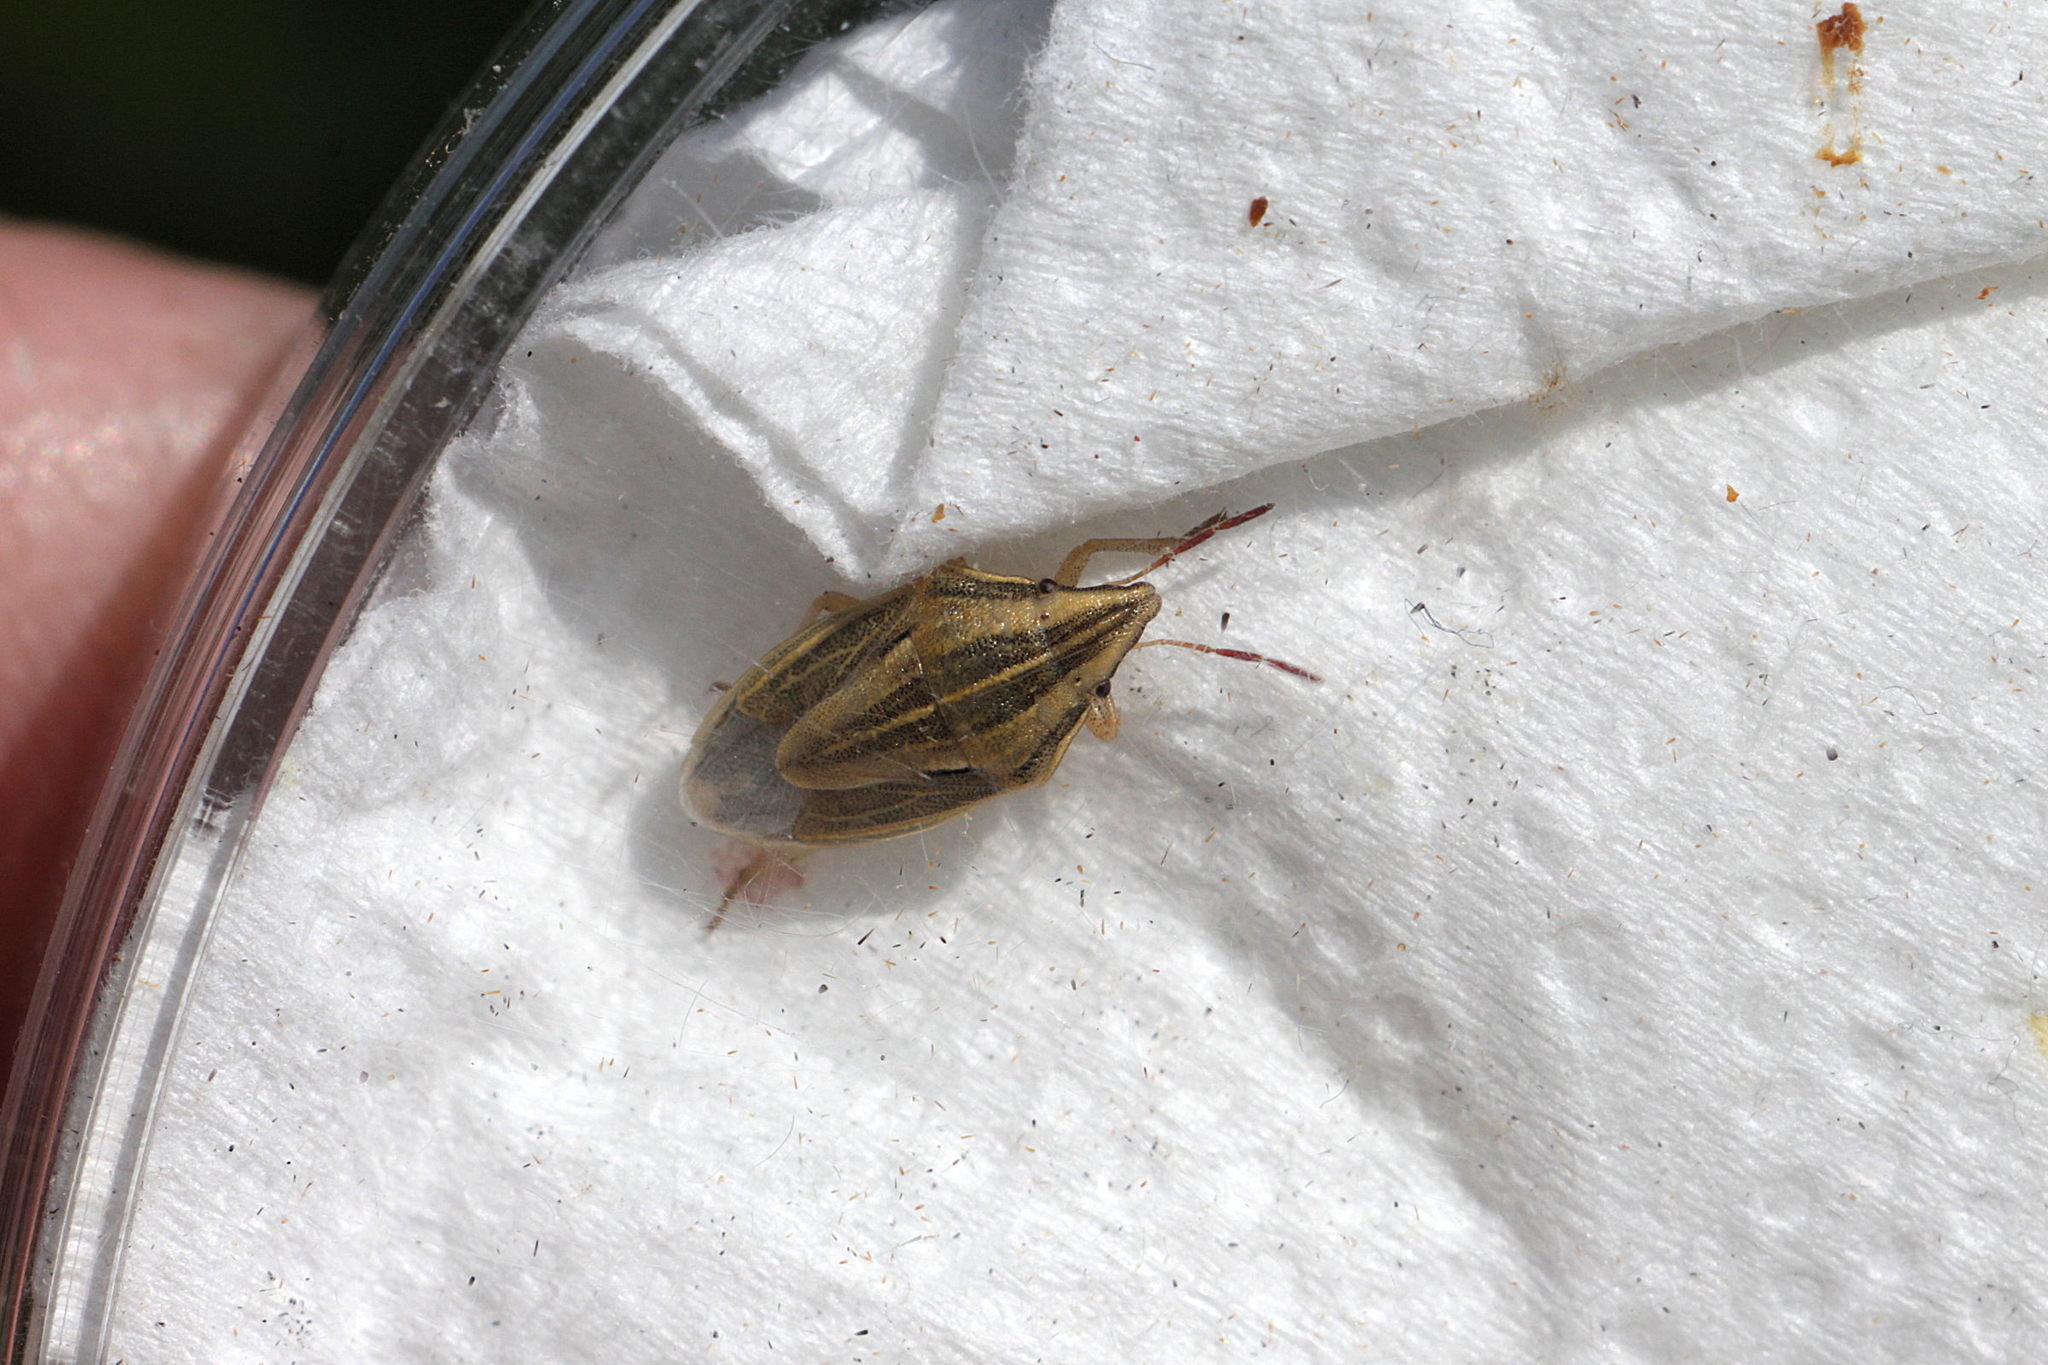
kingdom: Animalia
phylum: Arthropoda
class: Insecta
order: Hemiptera
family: Pentatomidae
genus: Aelia
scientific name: Aelia acuminata
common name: Bishop's mitre
